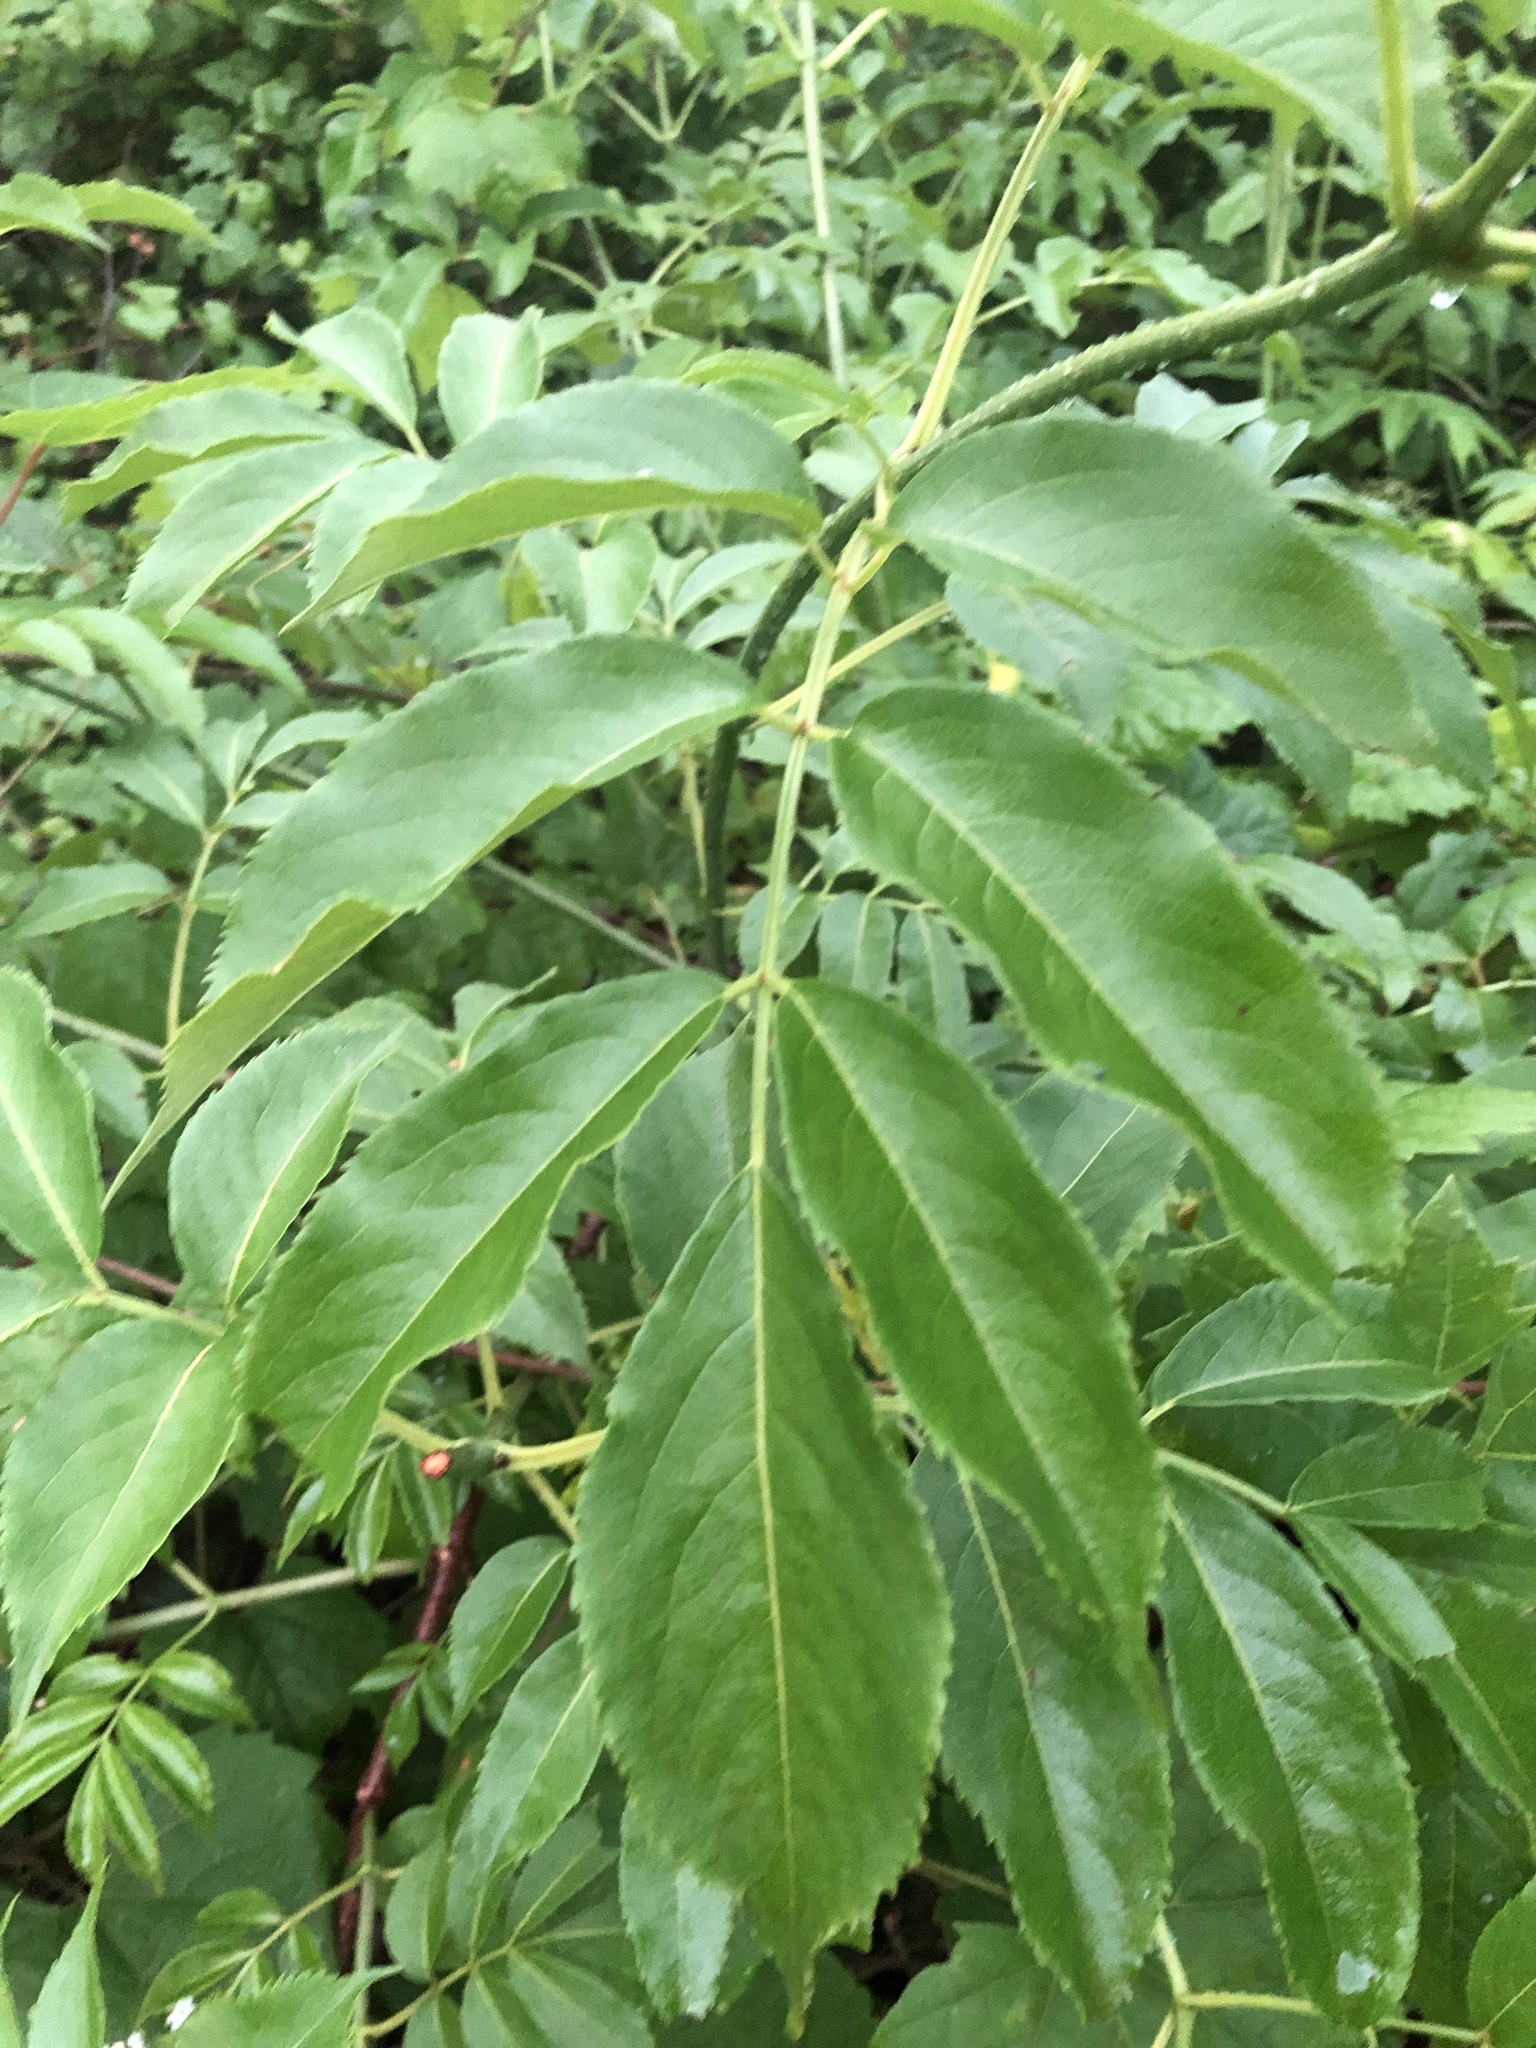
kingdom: Plantae
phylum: Tracheophyta
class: Magnoliopsida
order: Dipsacales
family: Viburnaceae
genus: Sambucus
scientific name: Sambucus canadensis
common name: American elder
